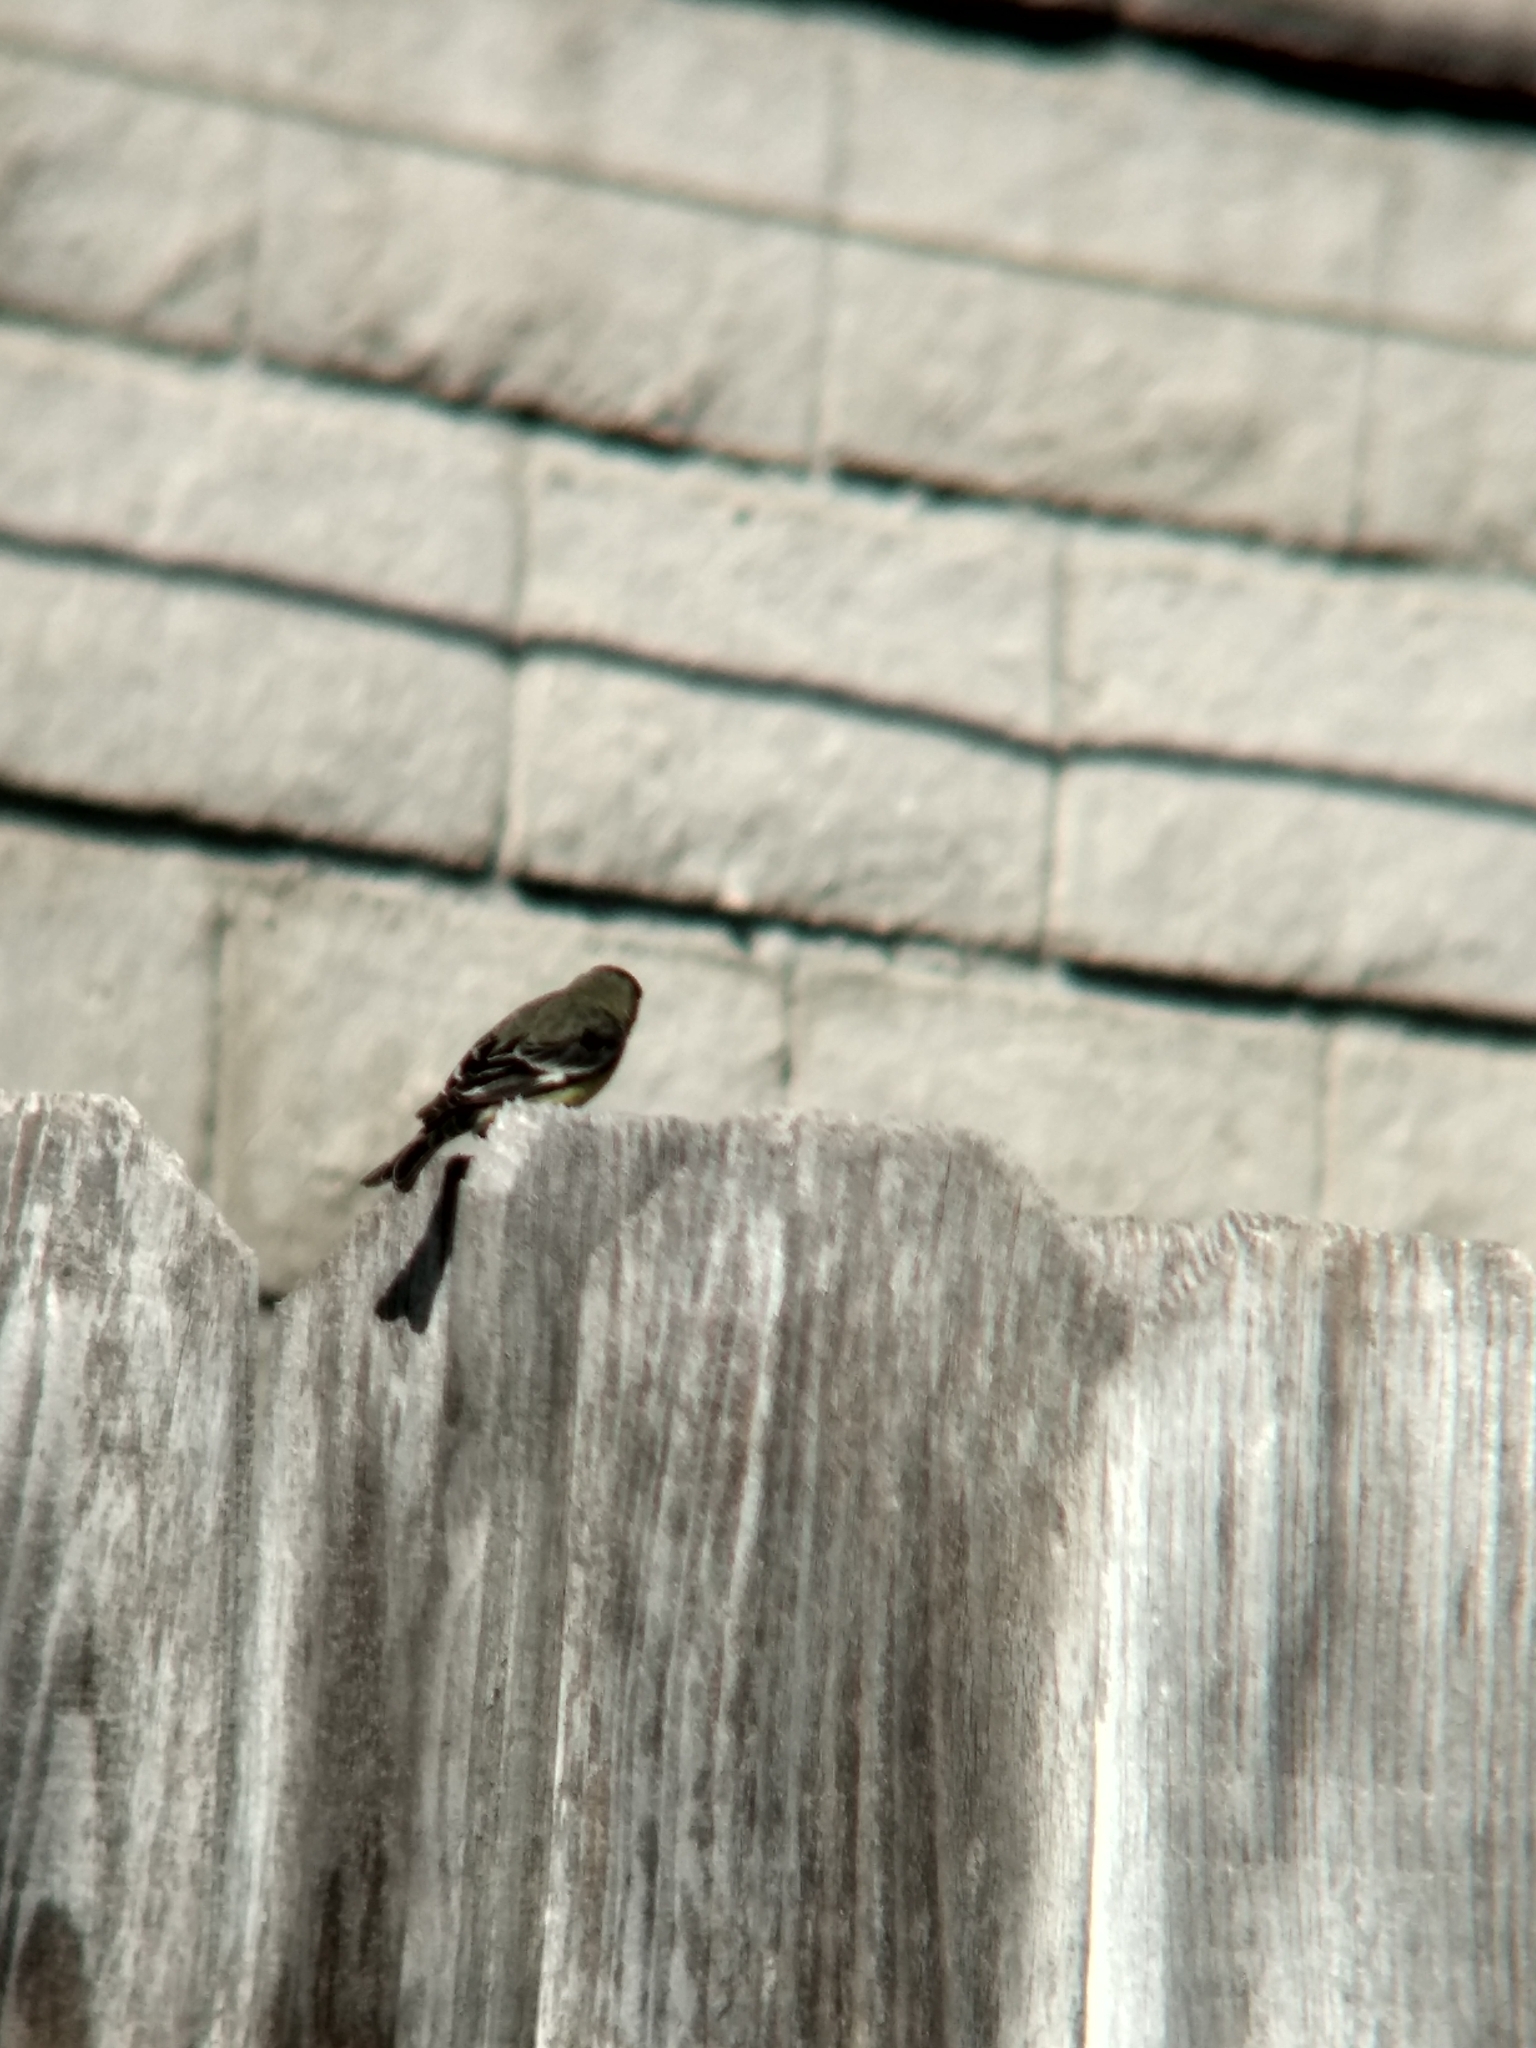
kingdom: Animalia
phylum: Chordata
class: Aves
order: Passeriformes
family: Fringillidae
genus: Spinus
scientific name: Spinus psaltria
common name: Lesser goldfinch
